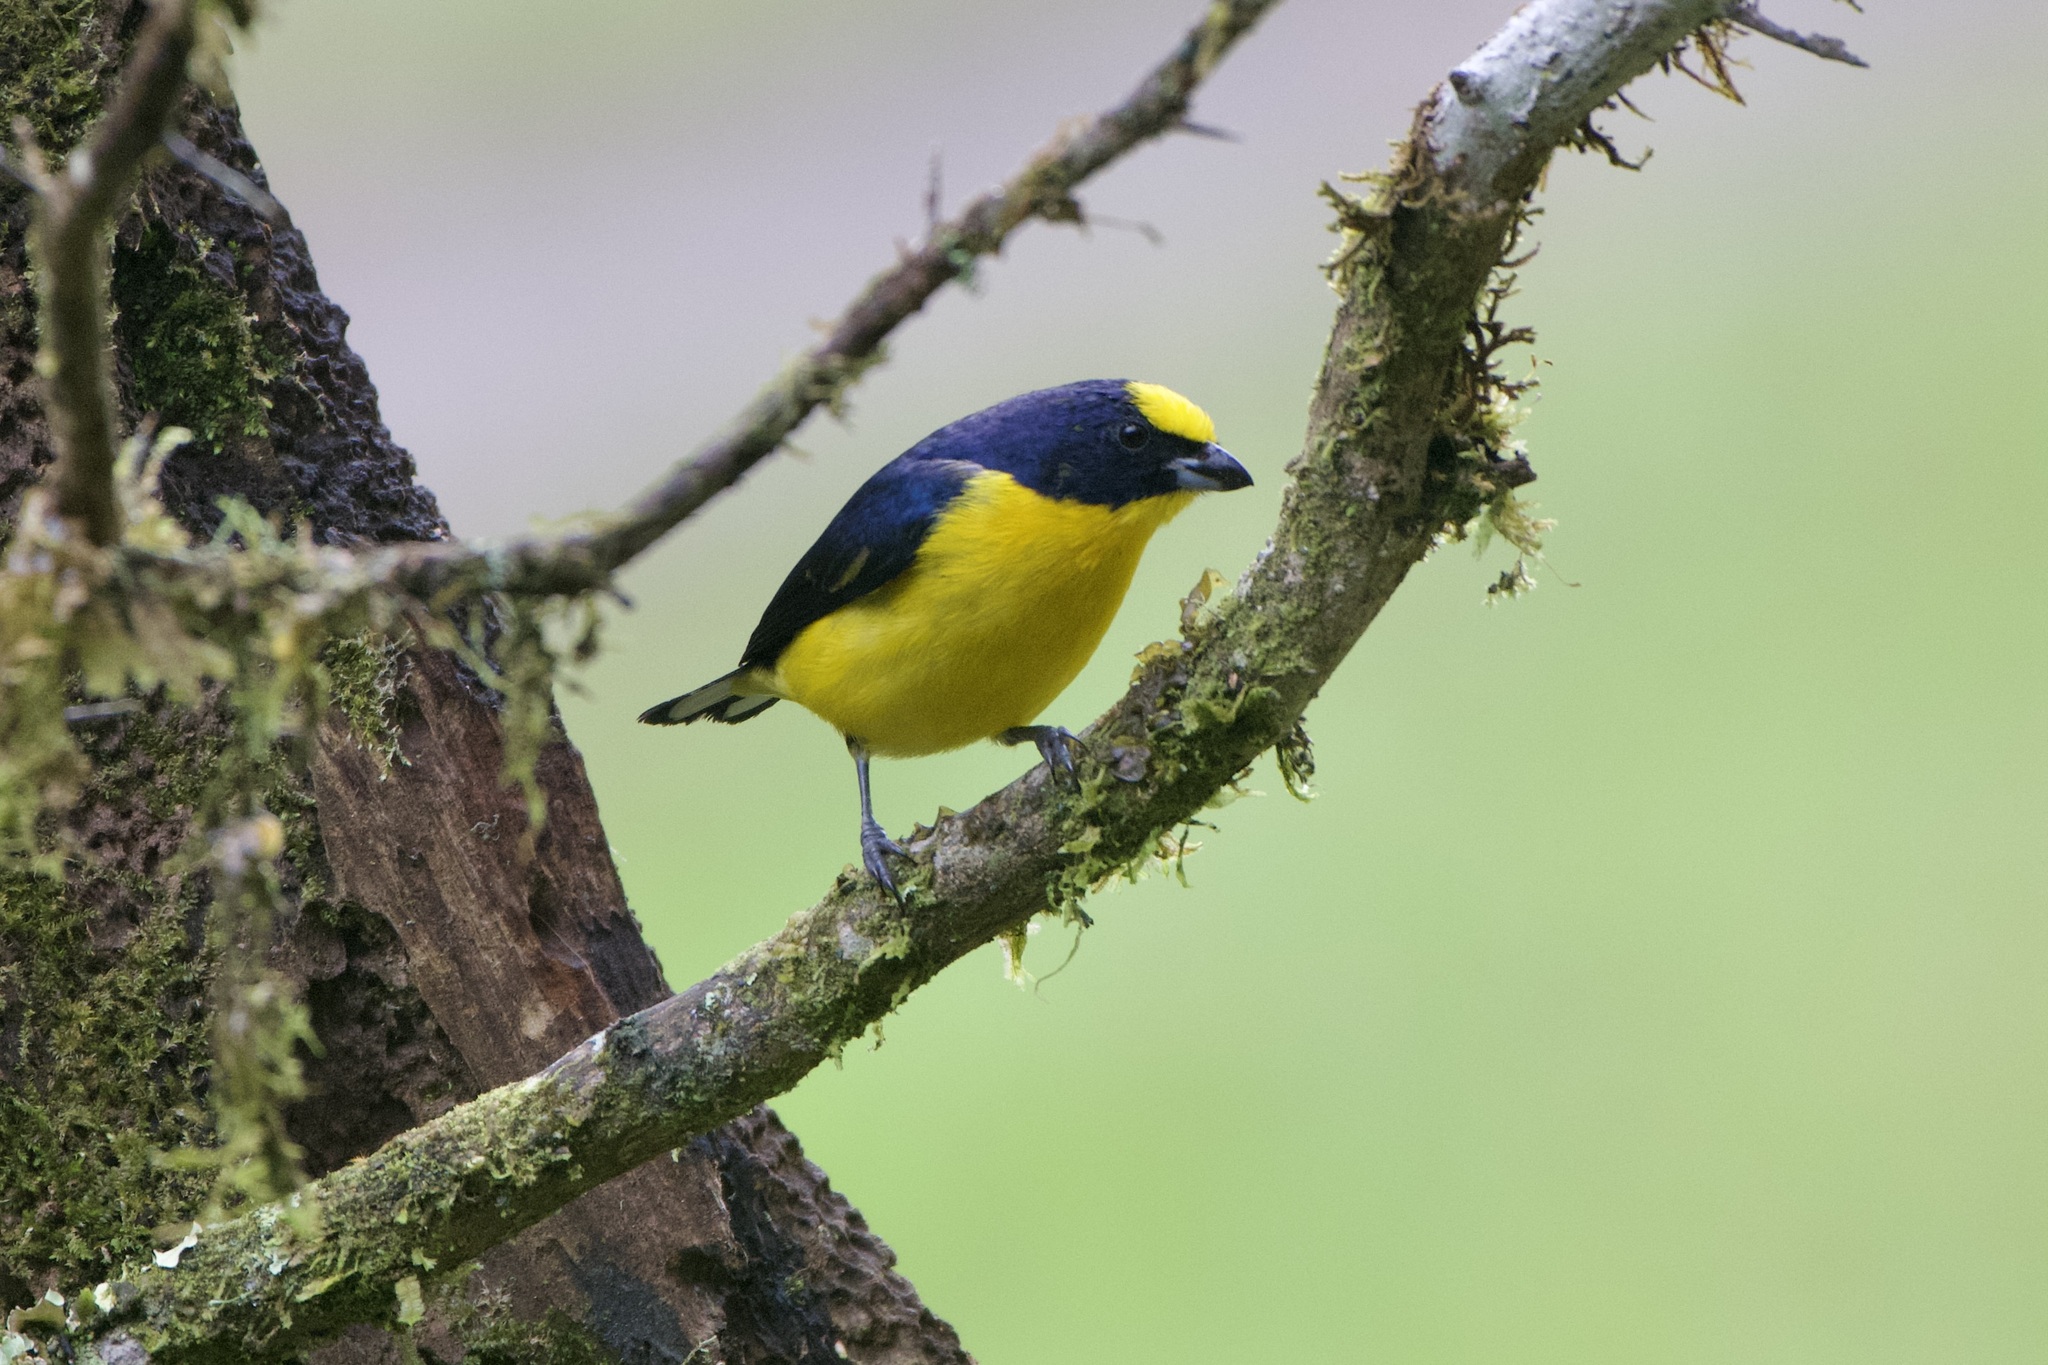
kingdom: Animalia
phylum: Chordata
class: Aves
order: Passeriformes
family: Fringillidae
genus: Euphonia
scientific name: Euphonia laniirostris
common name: Thick-billed euphonia
